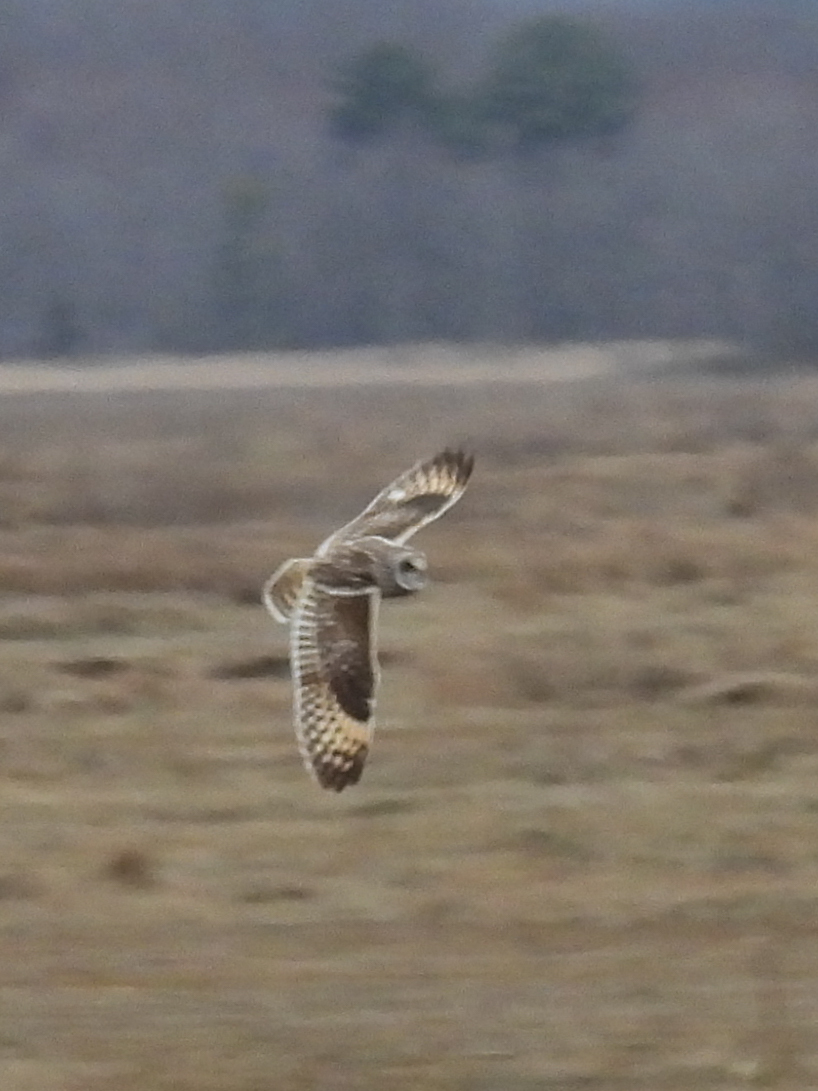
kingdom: Animalia
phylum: Chordata
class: Aves
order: Strigiformes
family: Strigidae
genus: Asio
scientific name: Asio flammeus
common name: Short-eared owl
